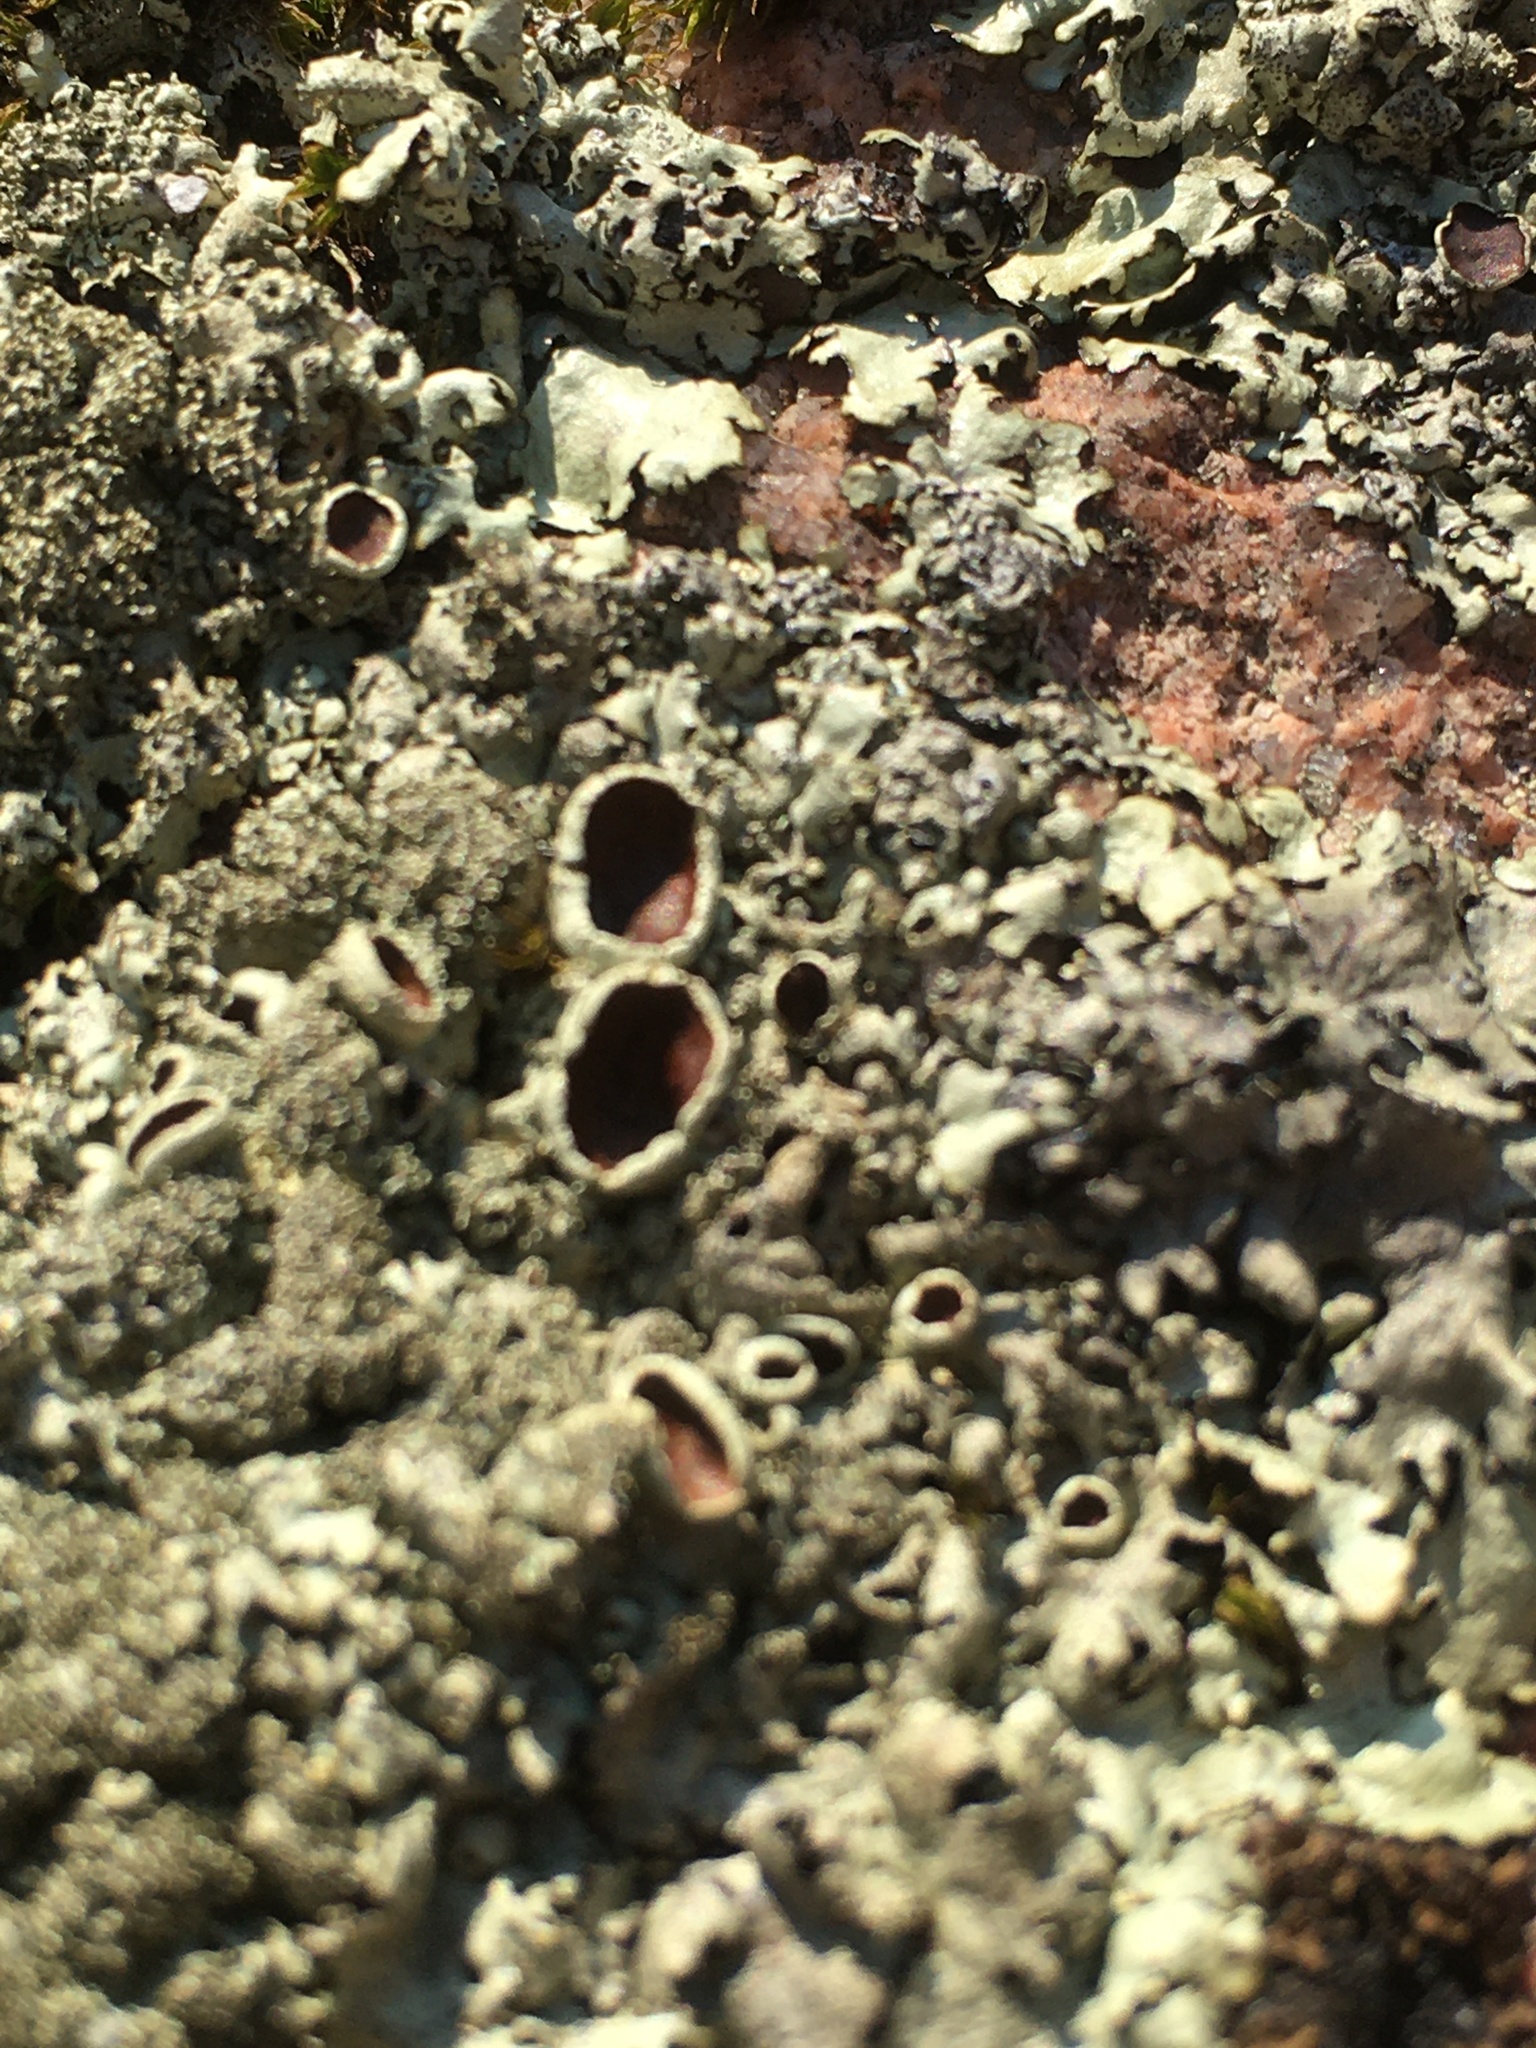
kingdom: Fungi
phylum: Ascomycota
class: Lecanoromycetes
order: Lecanorales
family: Parmeliaceae
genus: Xanthoparmelia
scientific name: Xanthoparmelia conspersa
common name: Peppered rock shield
